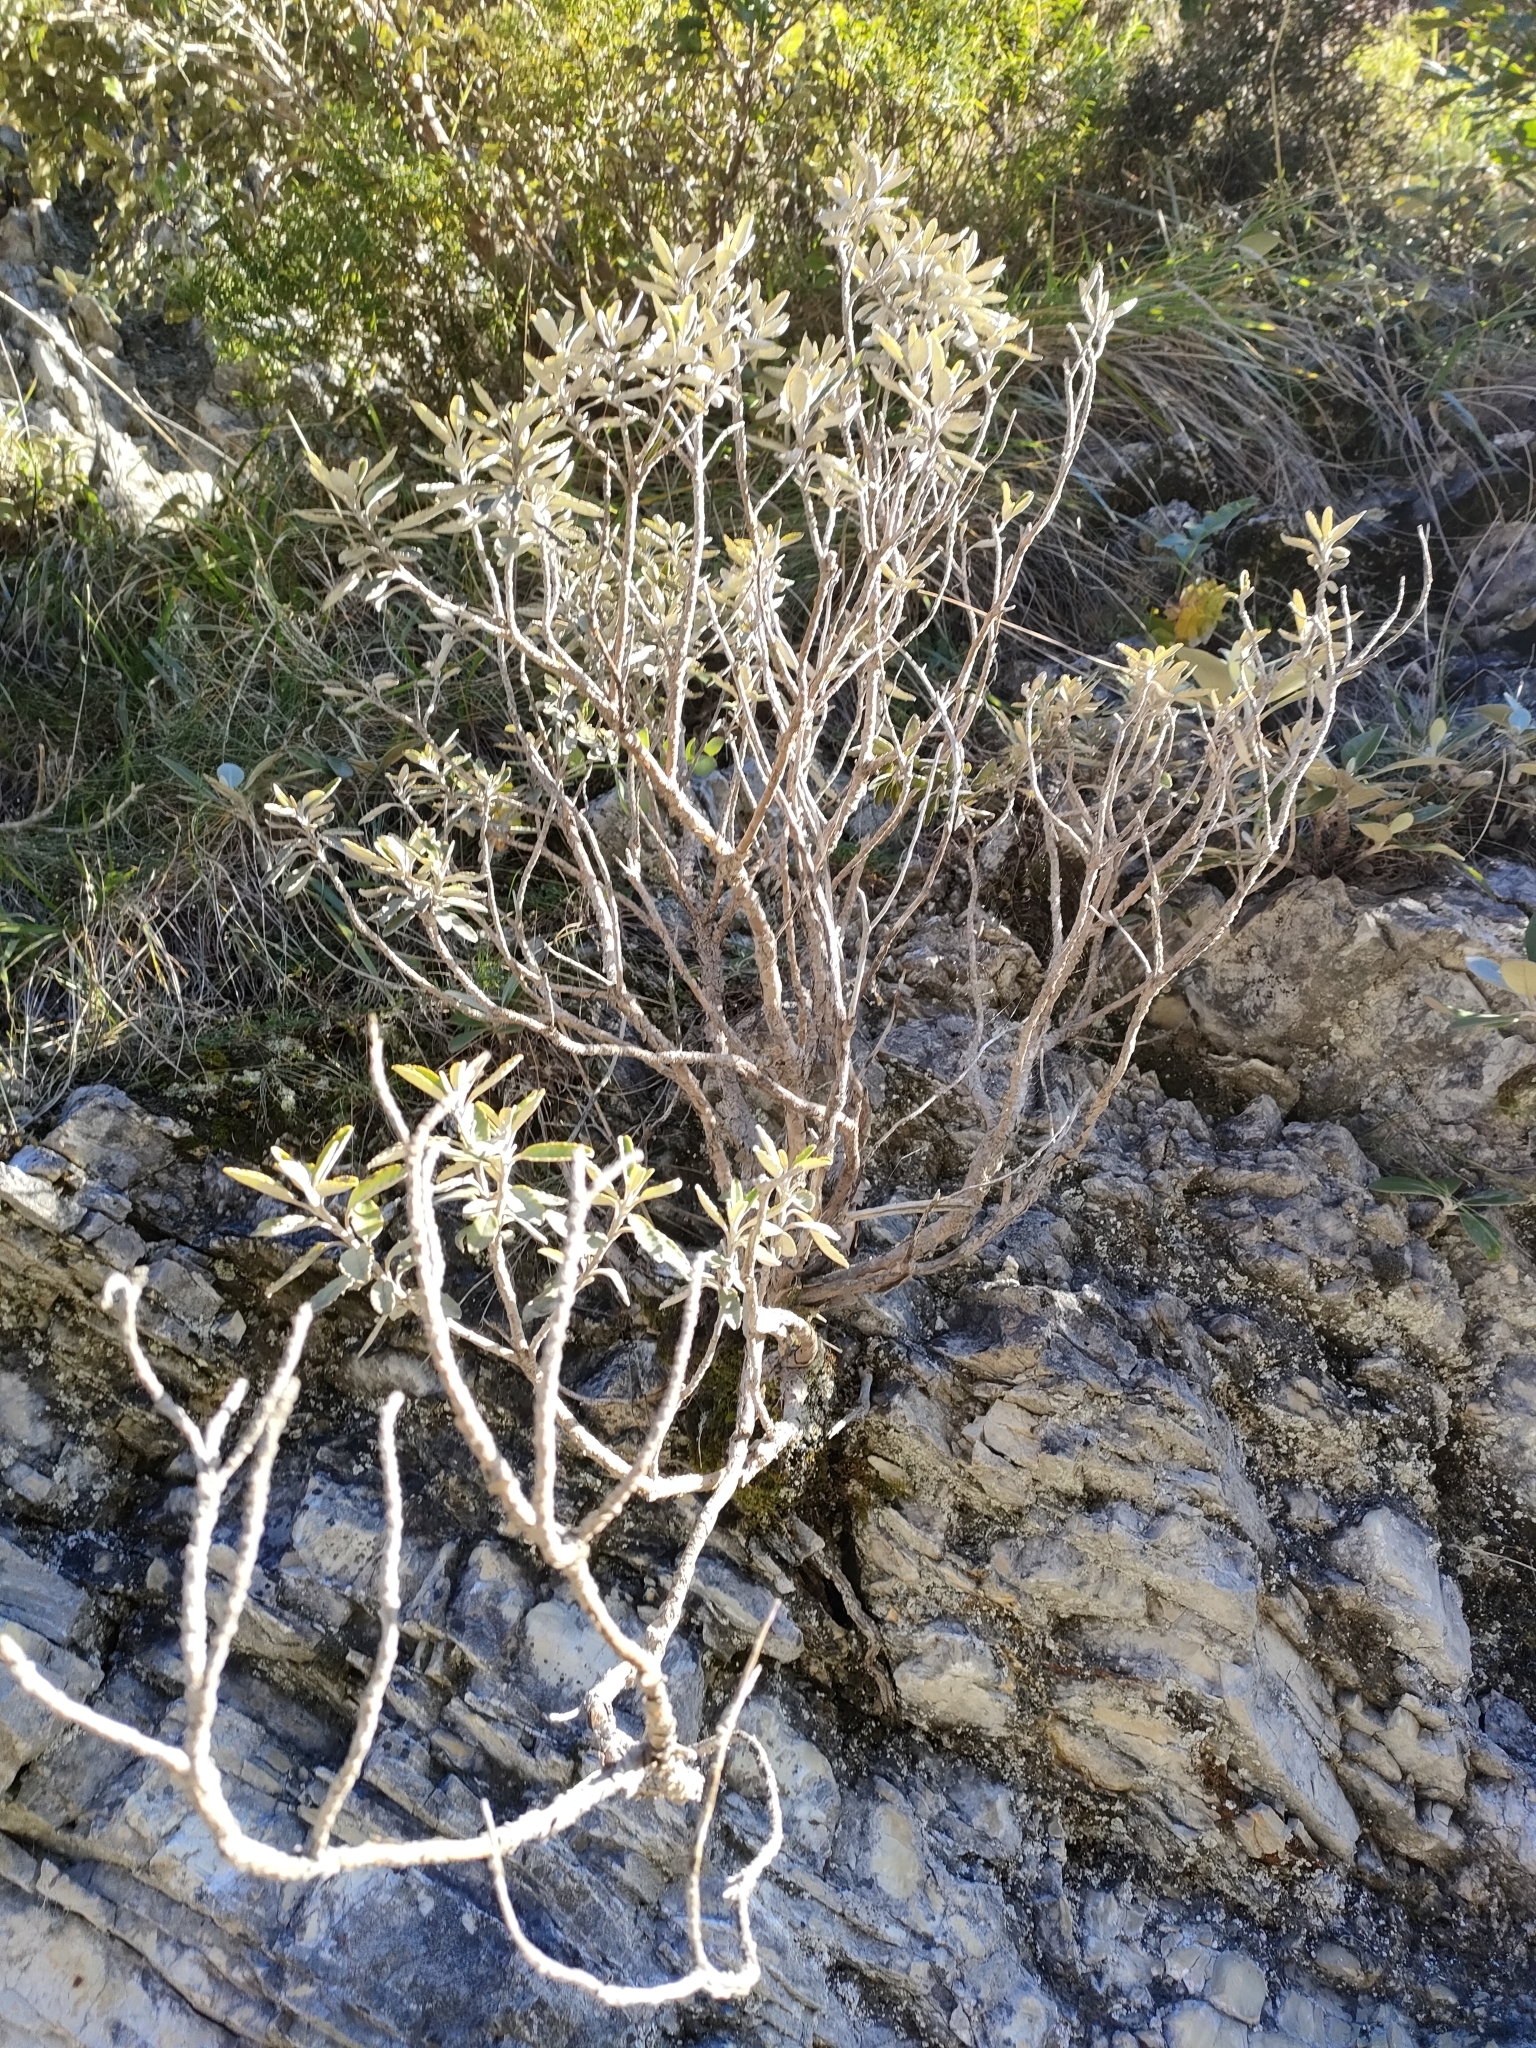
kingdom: Plantae
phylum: Tracheophyta
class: Magnoliopsida
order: Asterales
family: Asteraceae
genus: Brachyglottis
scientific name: Brachyglottis monroi
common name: Monro's ragwort
